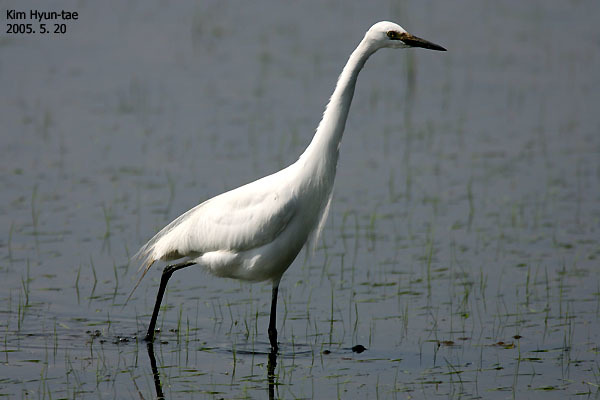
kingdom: Animalia
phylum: Chordata
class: Aves
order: Pelecaniformes
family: Ardeidae
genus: Egretta
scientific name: Egretta intermedia
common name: Intermediate egret
